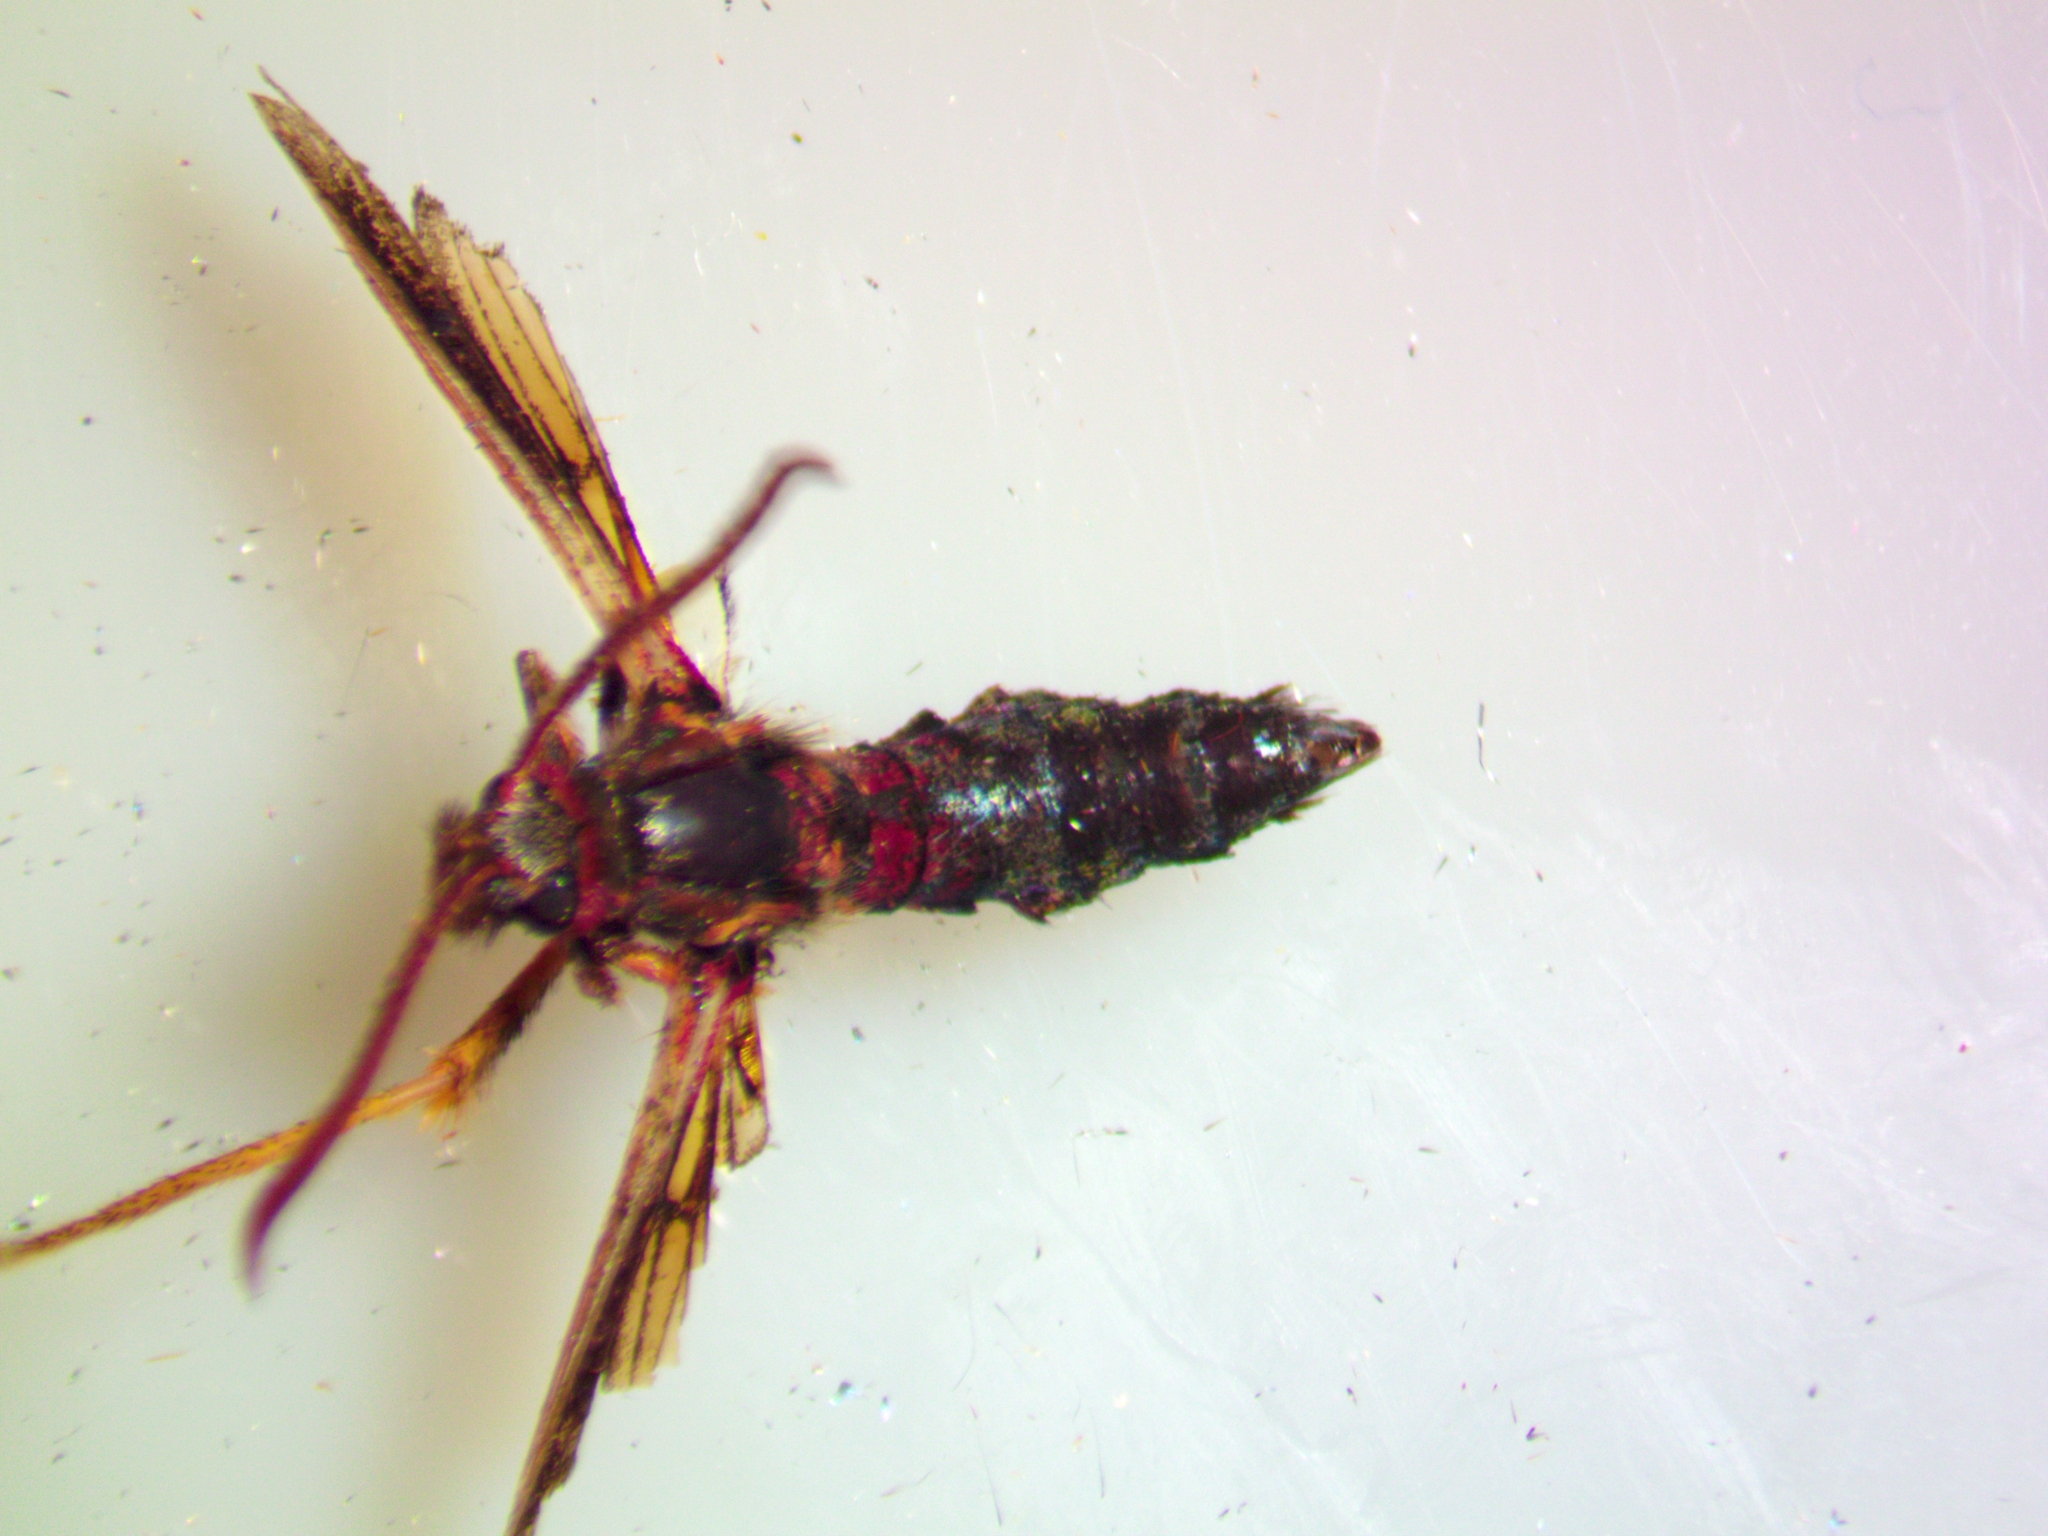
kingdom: Animalia
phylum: Arthropoda
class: Insecta
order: Lepidoptera
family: Sesiidae
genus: Podosesia
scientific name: Podosesia syringae
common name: Lilac borer moth
